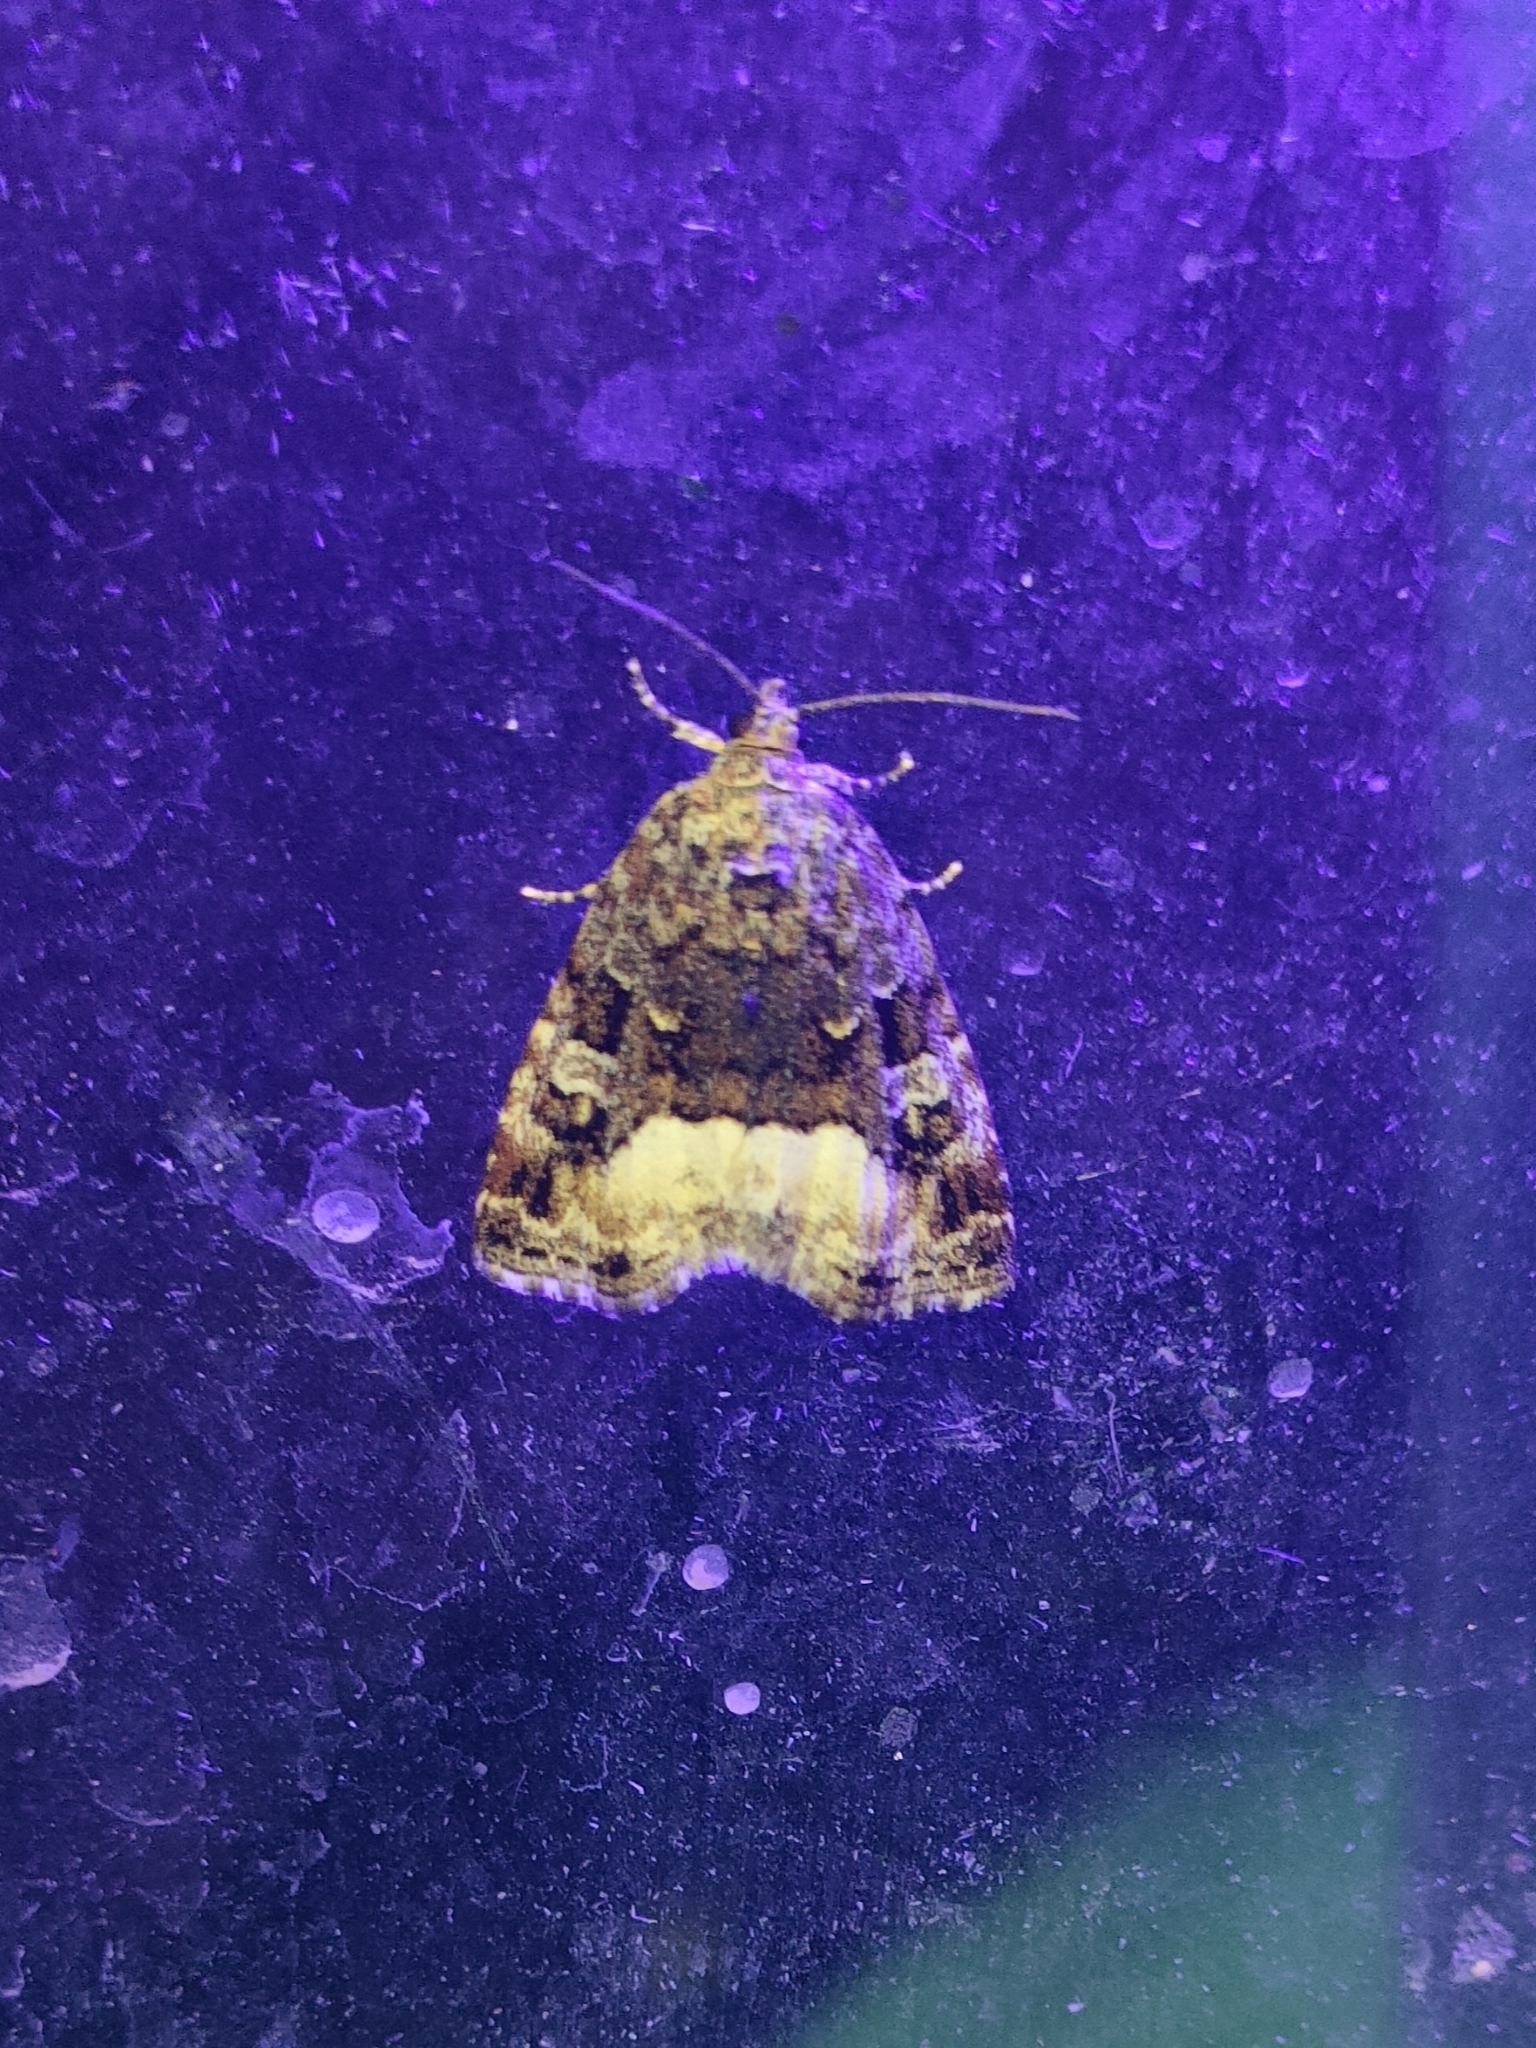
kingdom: Animalia
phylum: Arthropoda
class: Insecta
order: Lepidoptera
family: Noctuidae
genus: Deltote
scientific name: Deltote pygarga
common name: Marbled white spot
